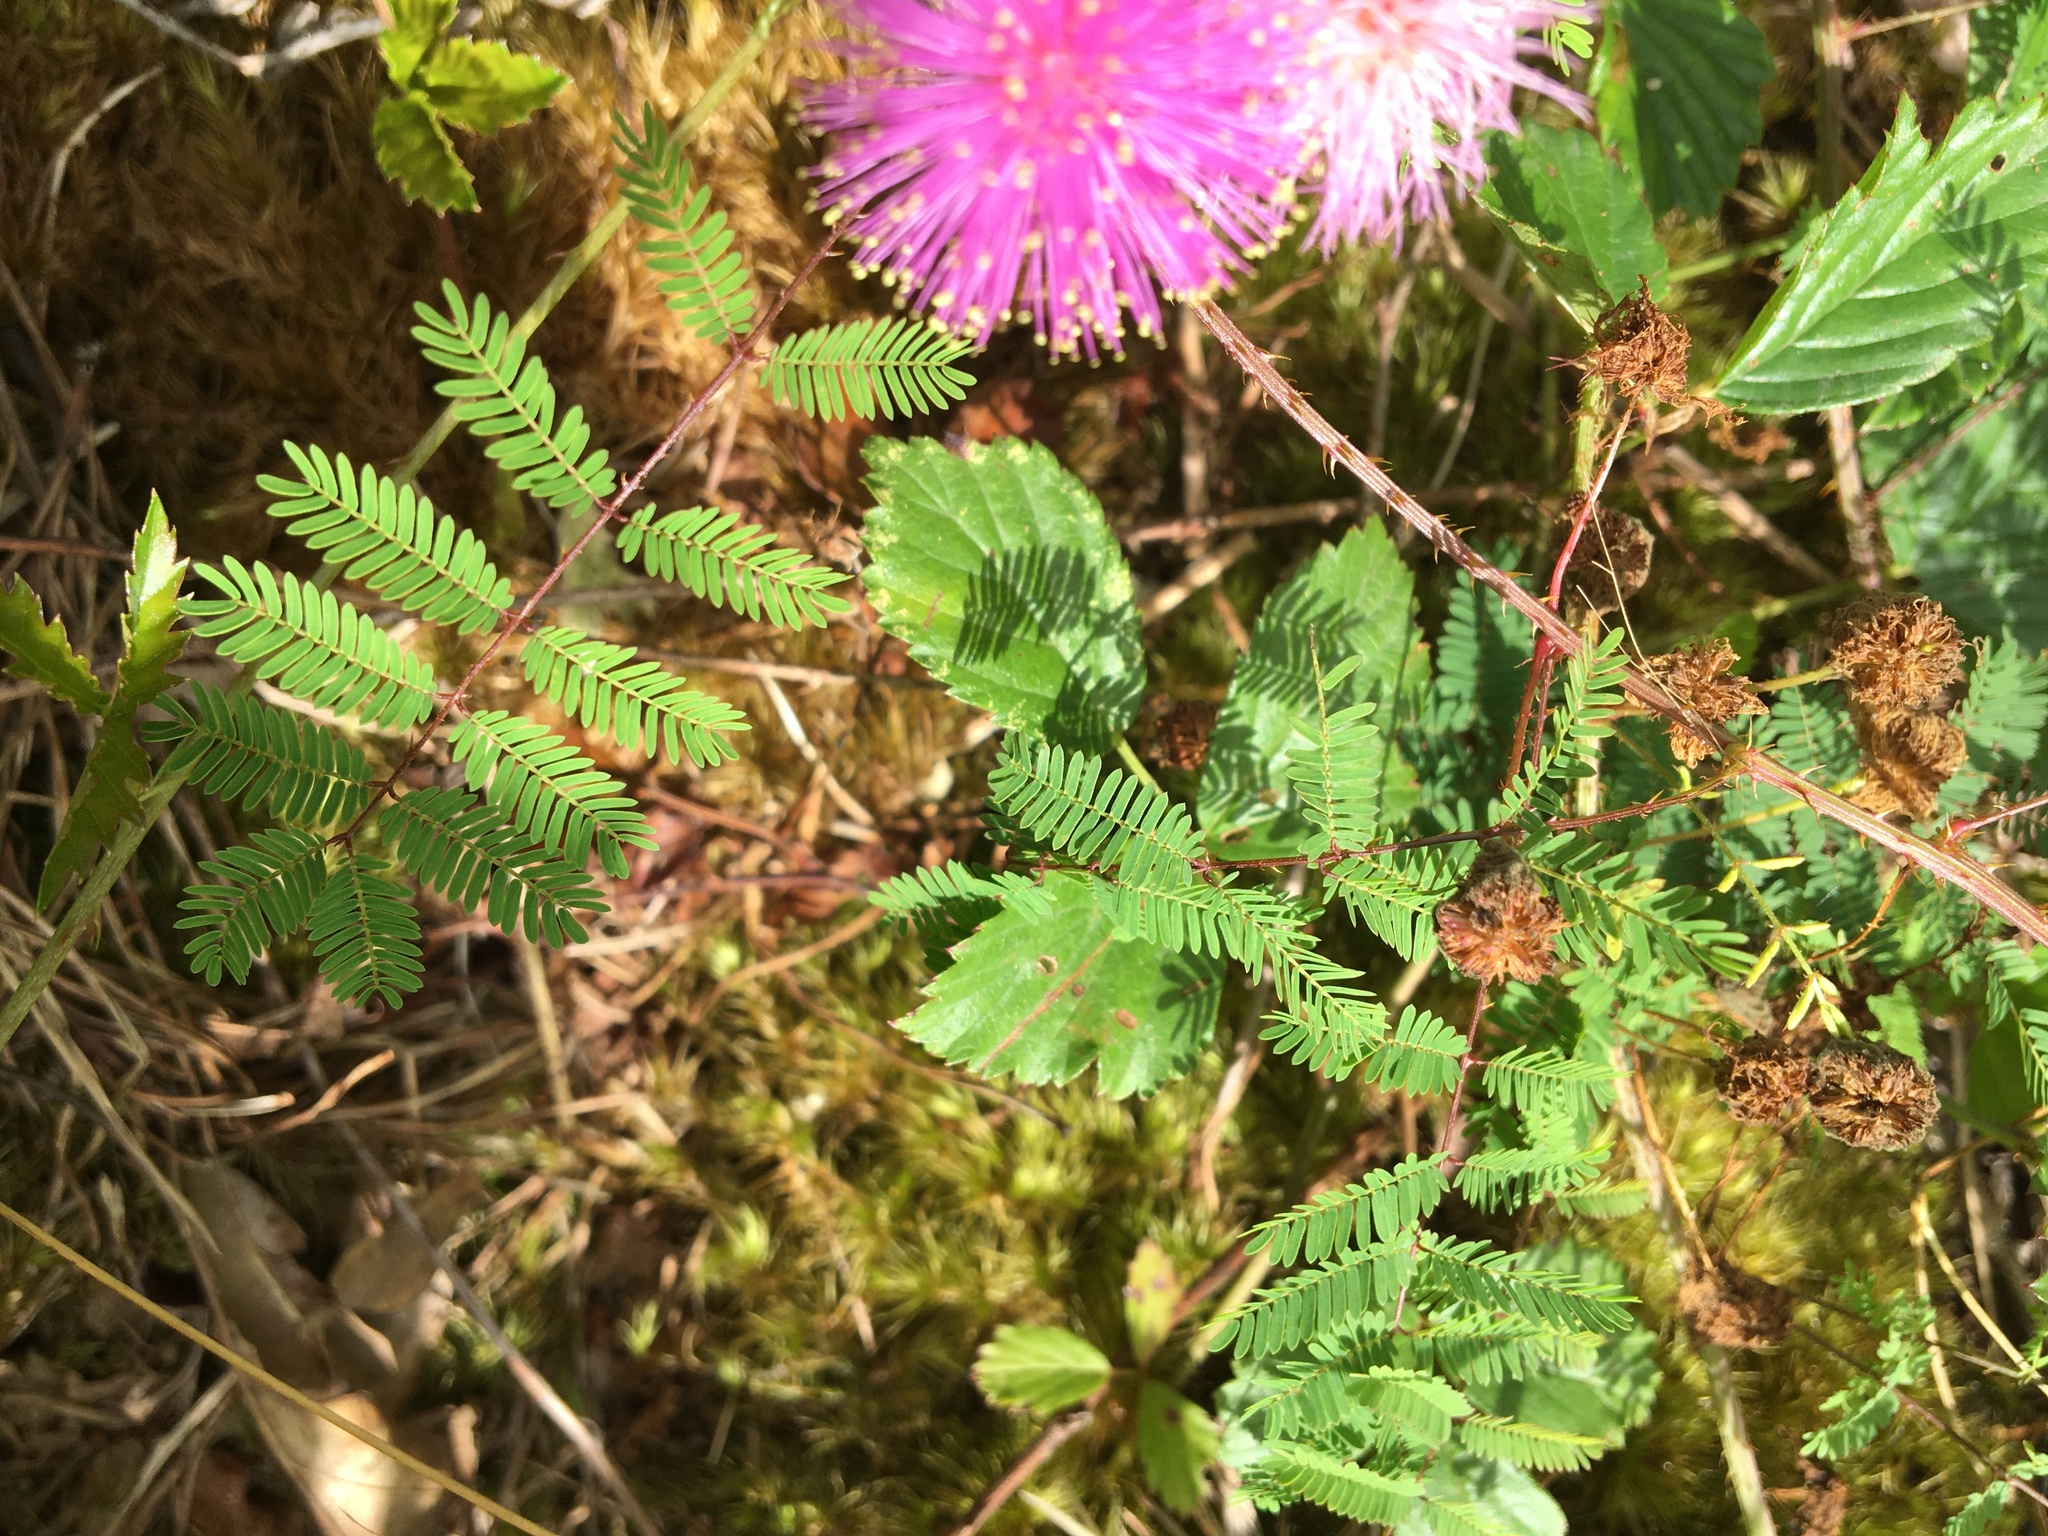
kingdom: Plantae
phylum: Tracheophyta
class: Magnoliopsida
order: Fabales
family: Fabaceae
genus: Mimosa
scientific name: Mimosa quadrivalvis
